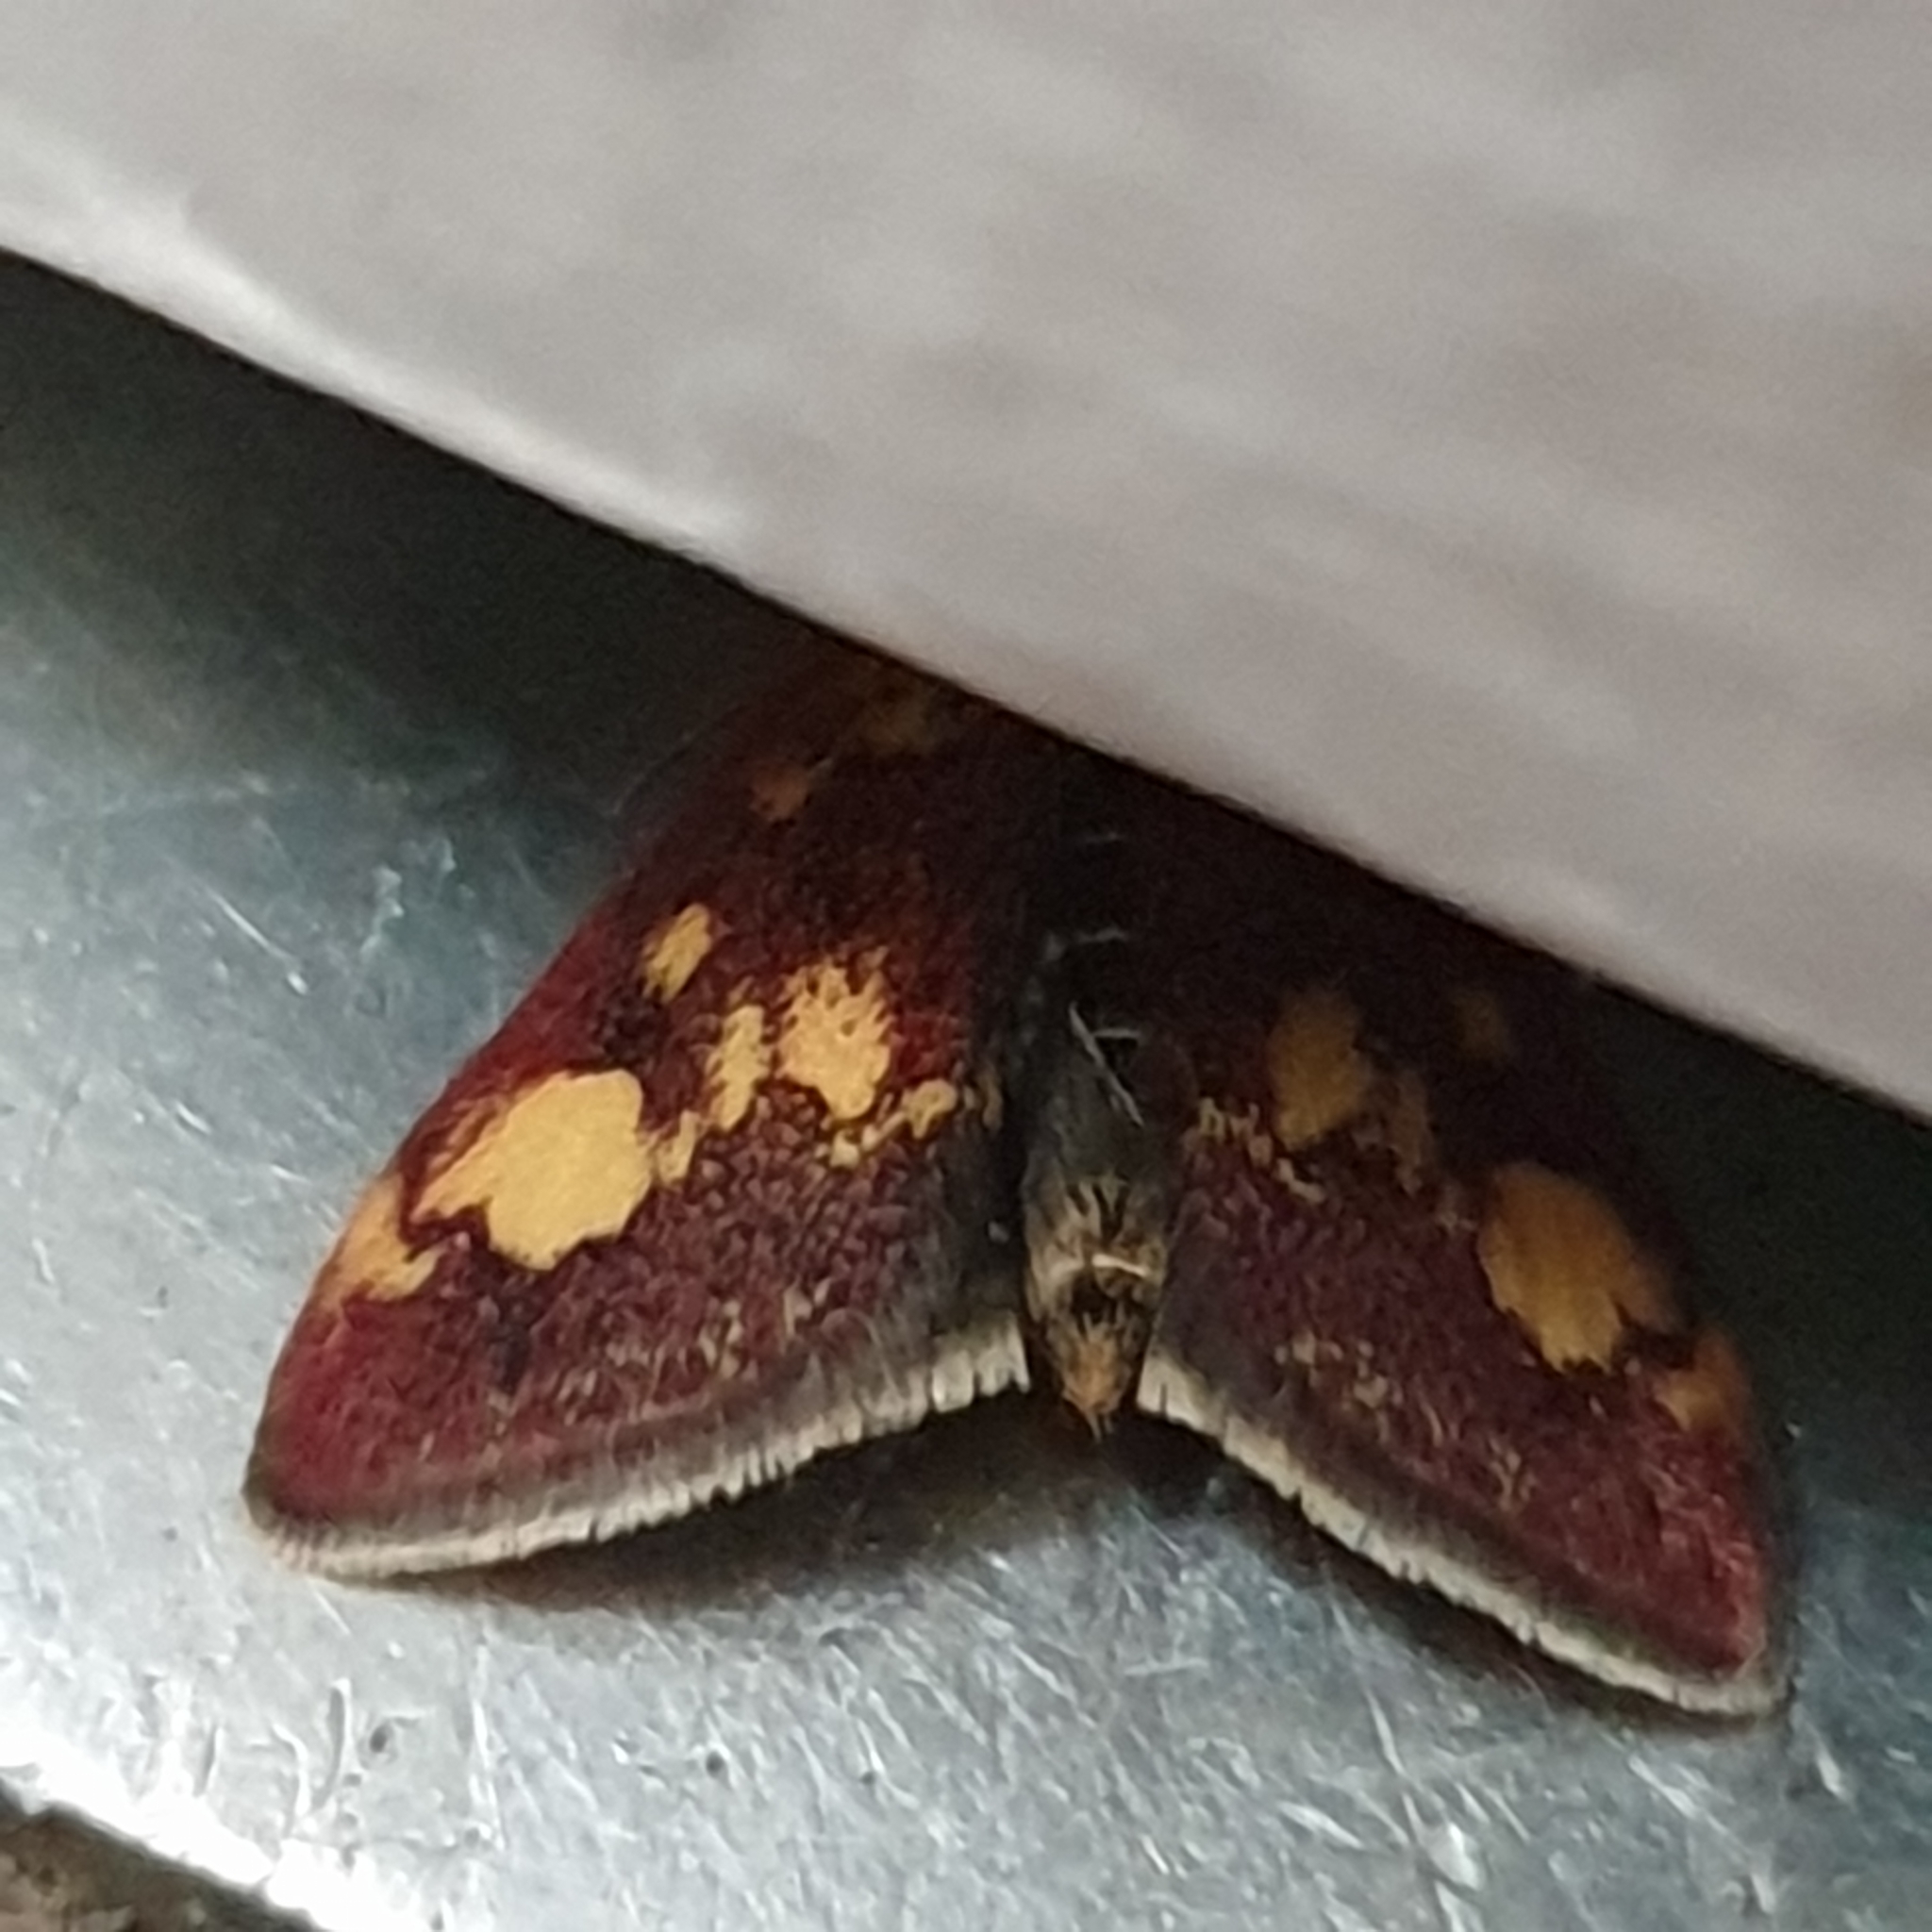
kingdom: Animalia
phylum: Arthropoda
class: Insecta
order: Lepidoptera
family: Crambidae
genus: Pyrausta
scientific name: Pyrausta aurata
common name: Small purple & gold
